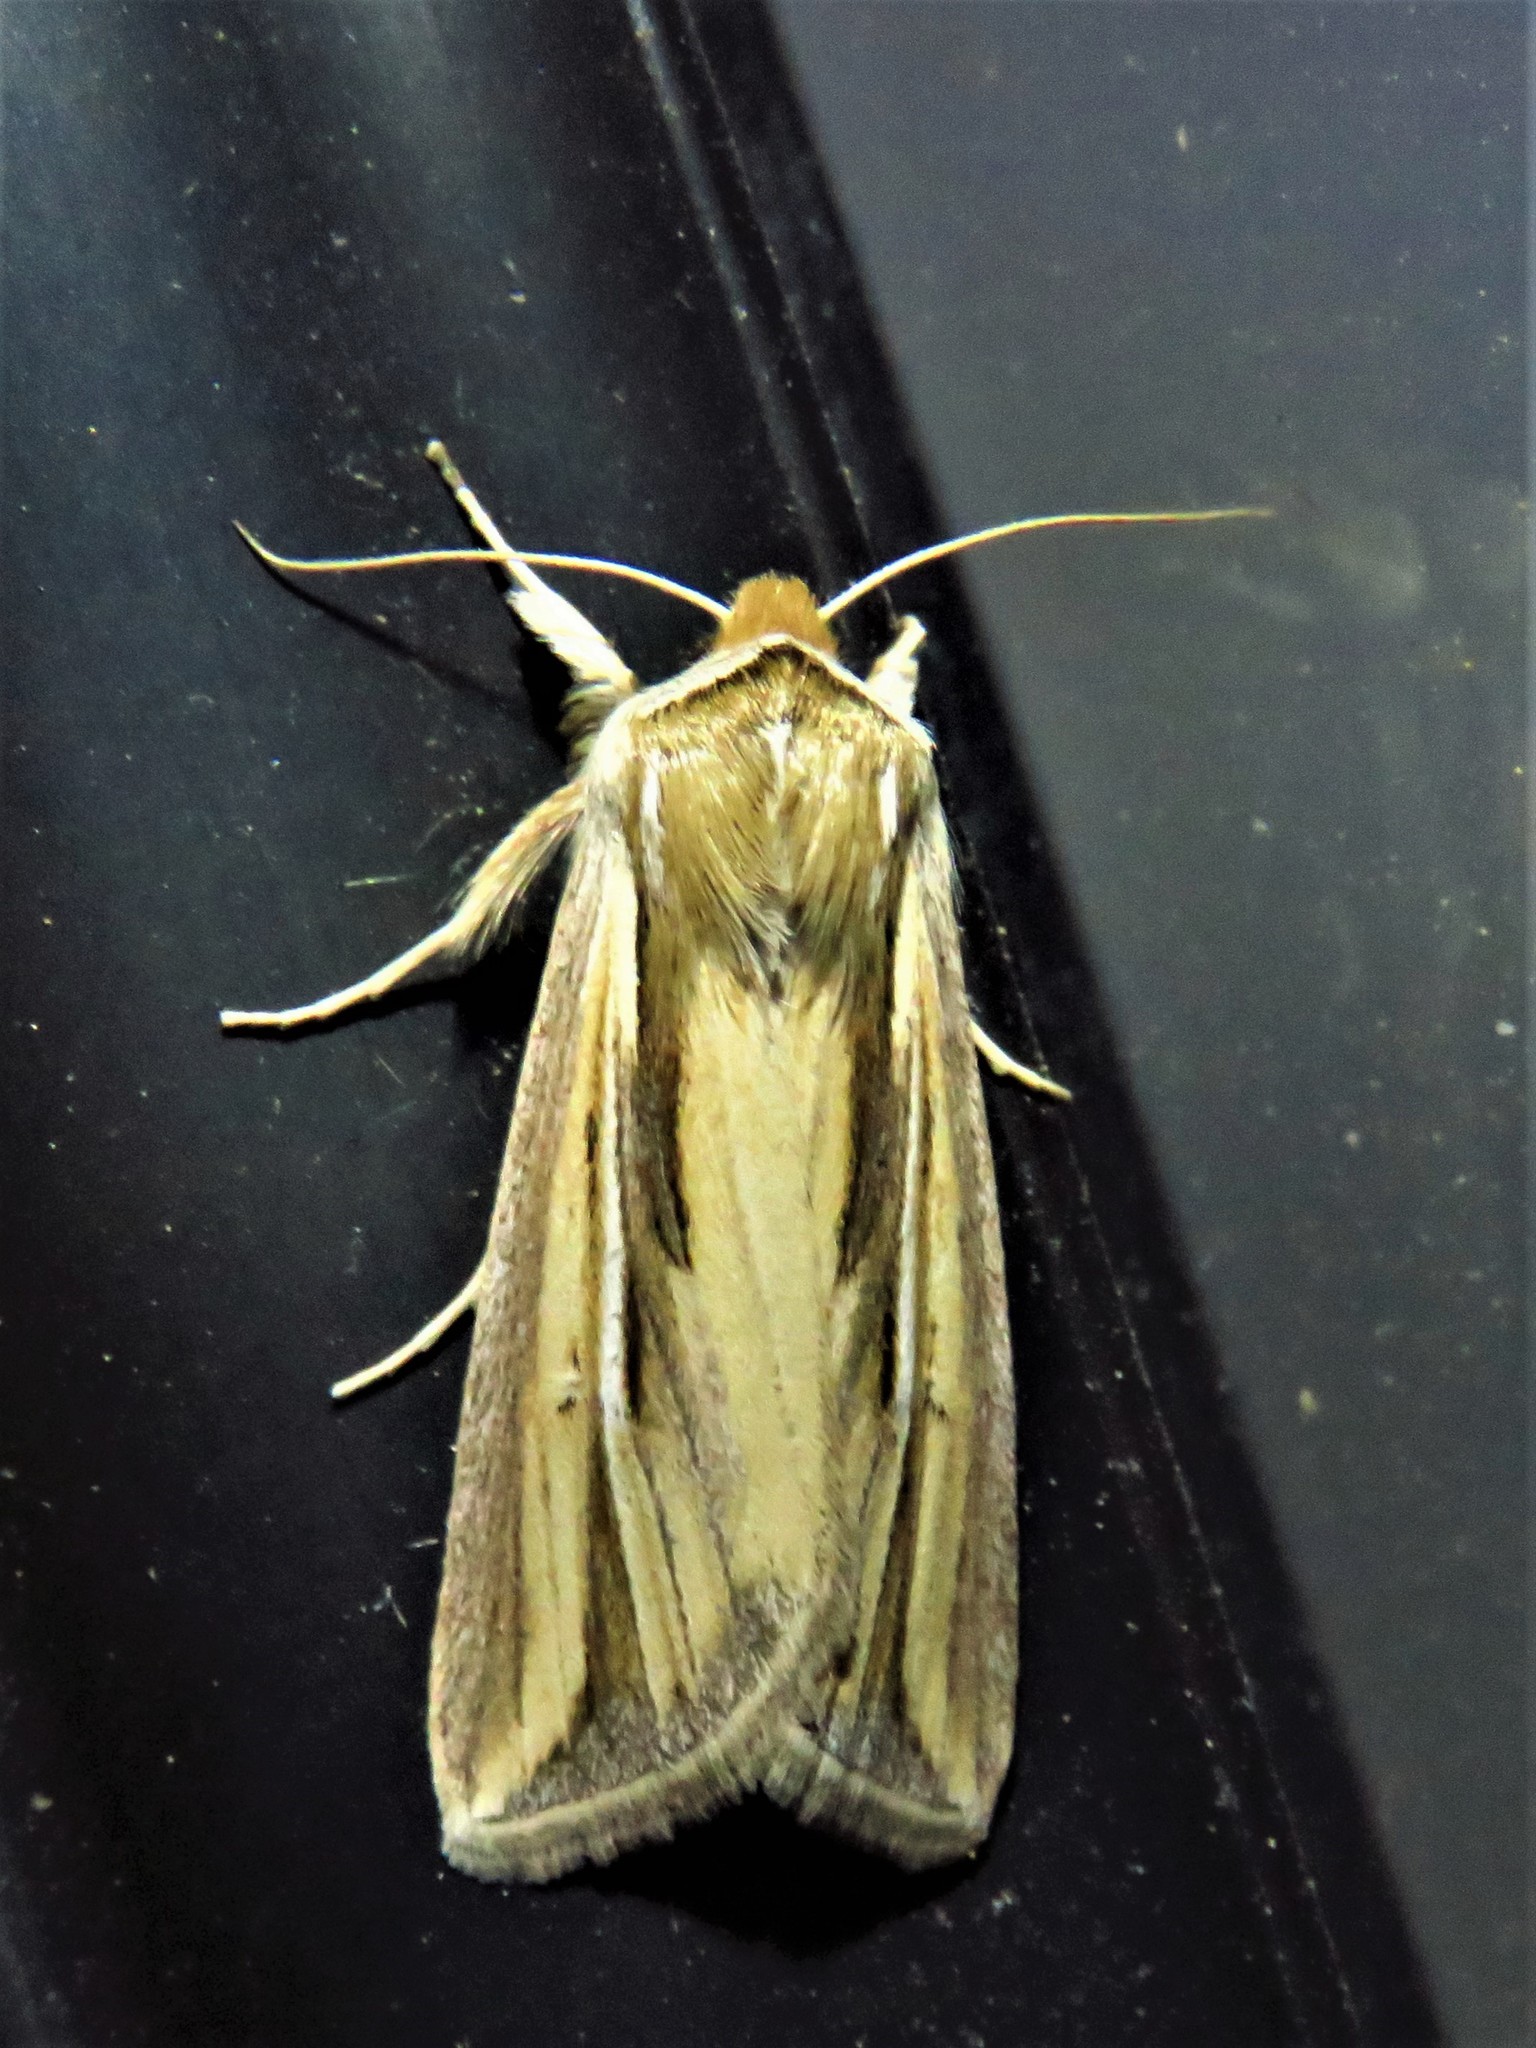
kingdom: Animalia
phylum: Arthropoda
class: Insecta
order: Lepidoptera
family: Noctuidae
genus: Dargida
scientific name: Dargida diffusa
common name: Wheat head armyworm
